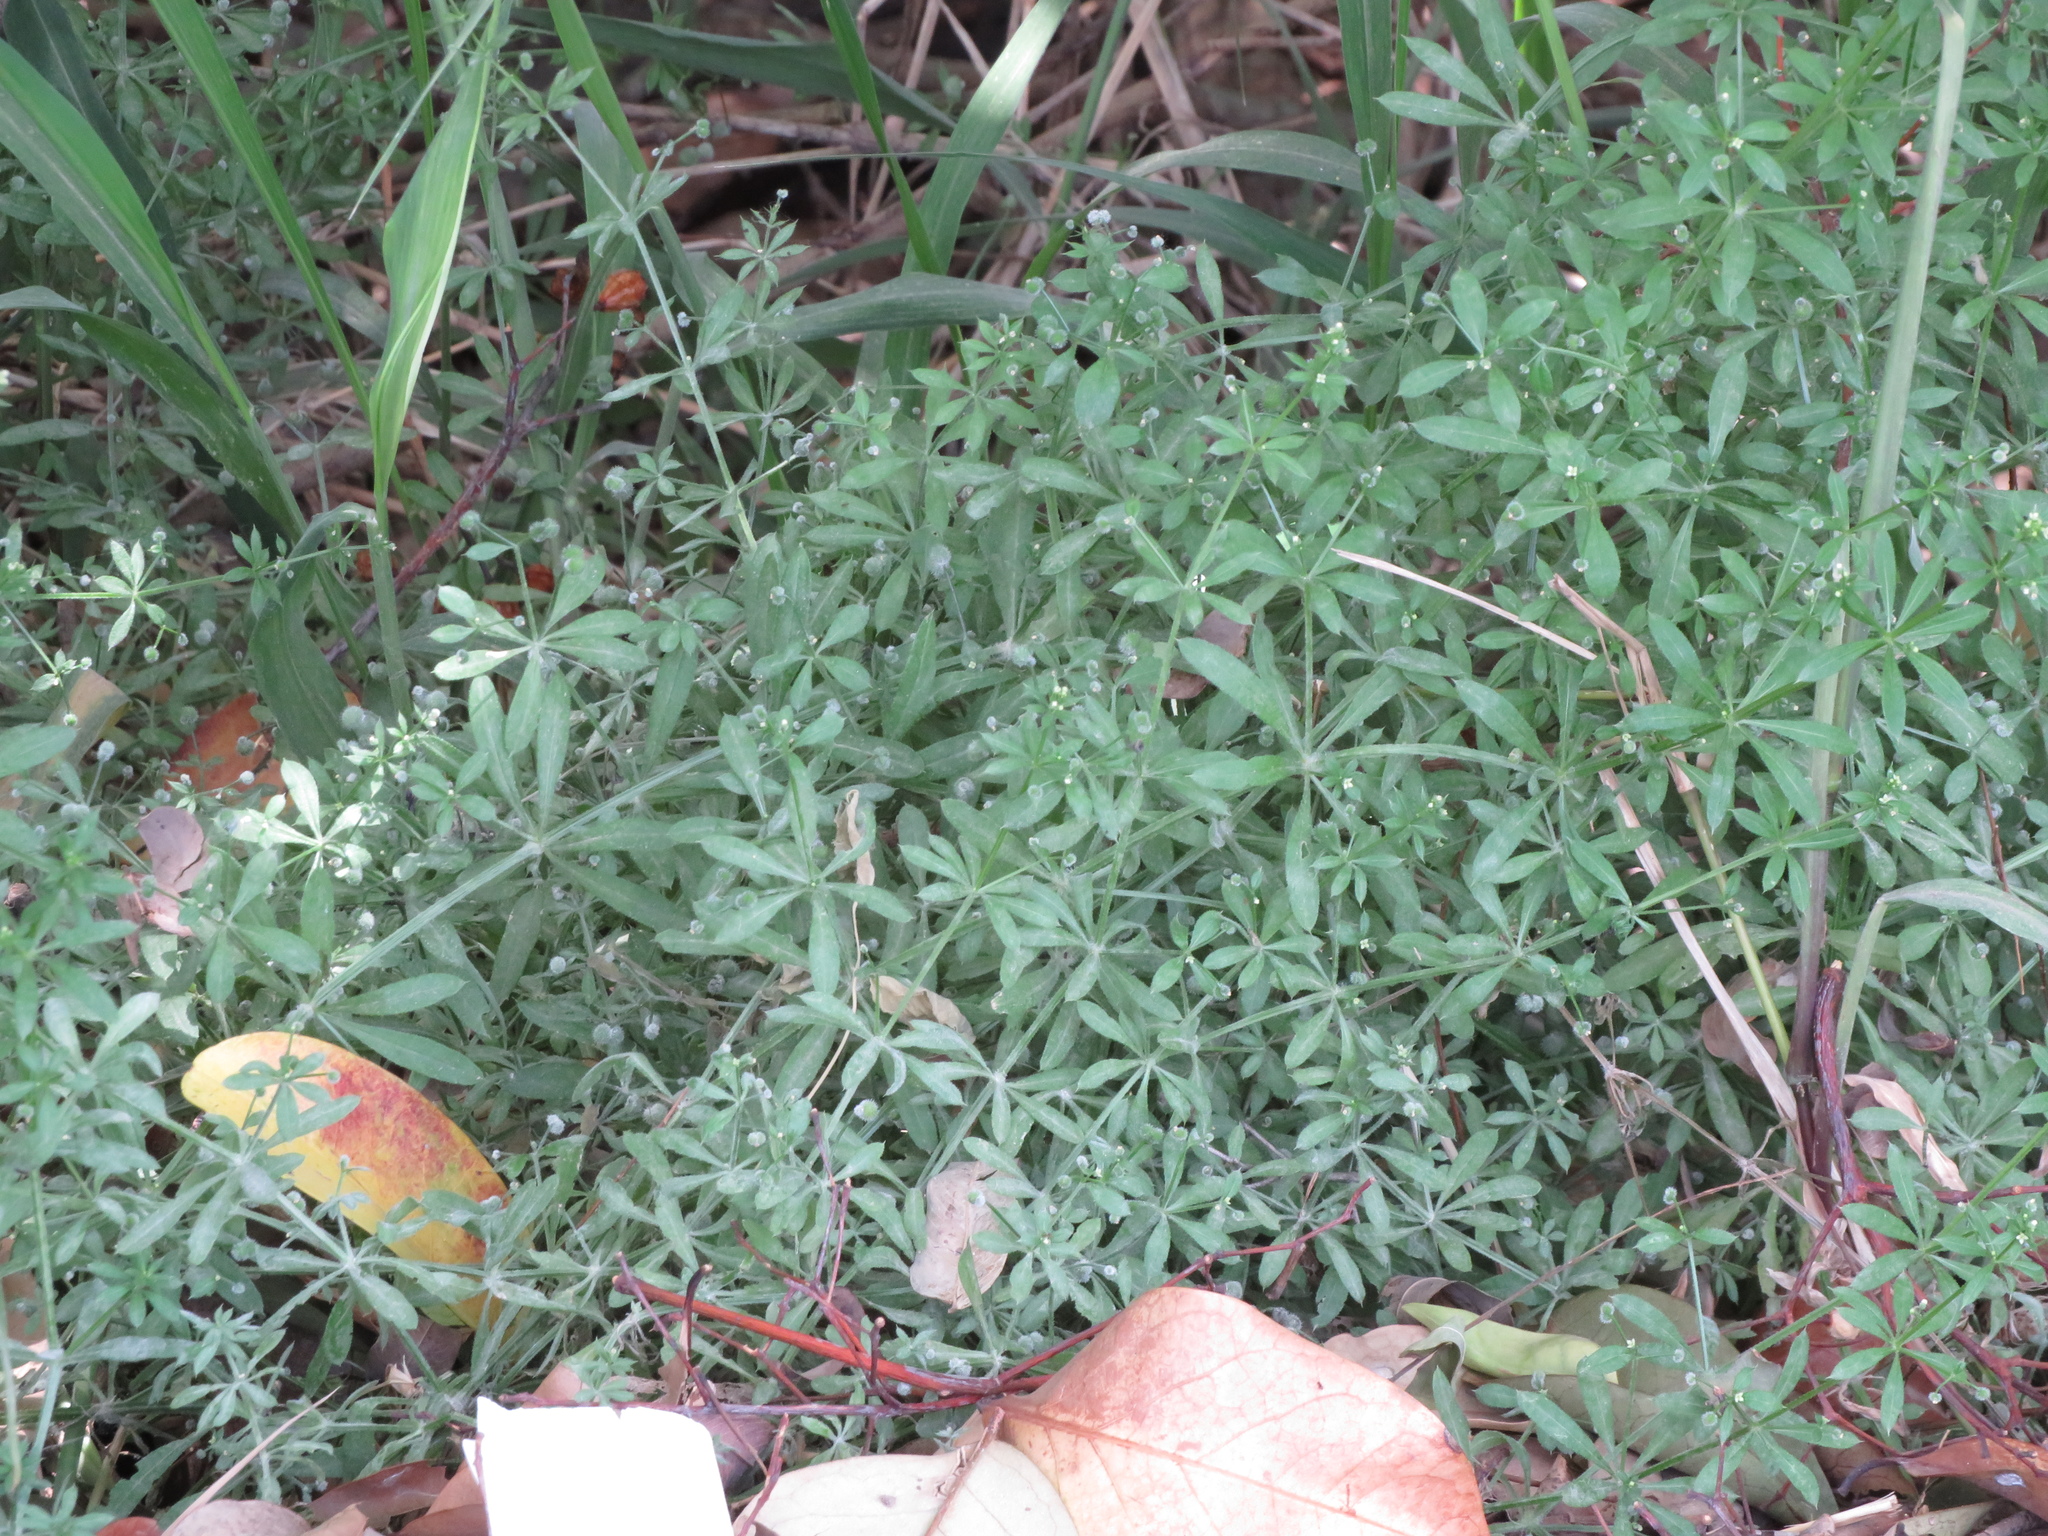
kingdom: Plantae
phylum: Tracheophyta
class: Magnoliopsida
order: Gentianales
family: Rubiaceae
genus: Galium
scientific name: Galium aparine
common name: Cleavers
